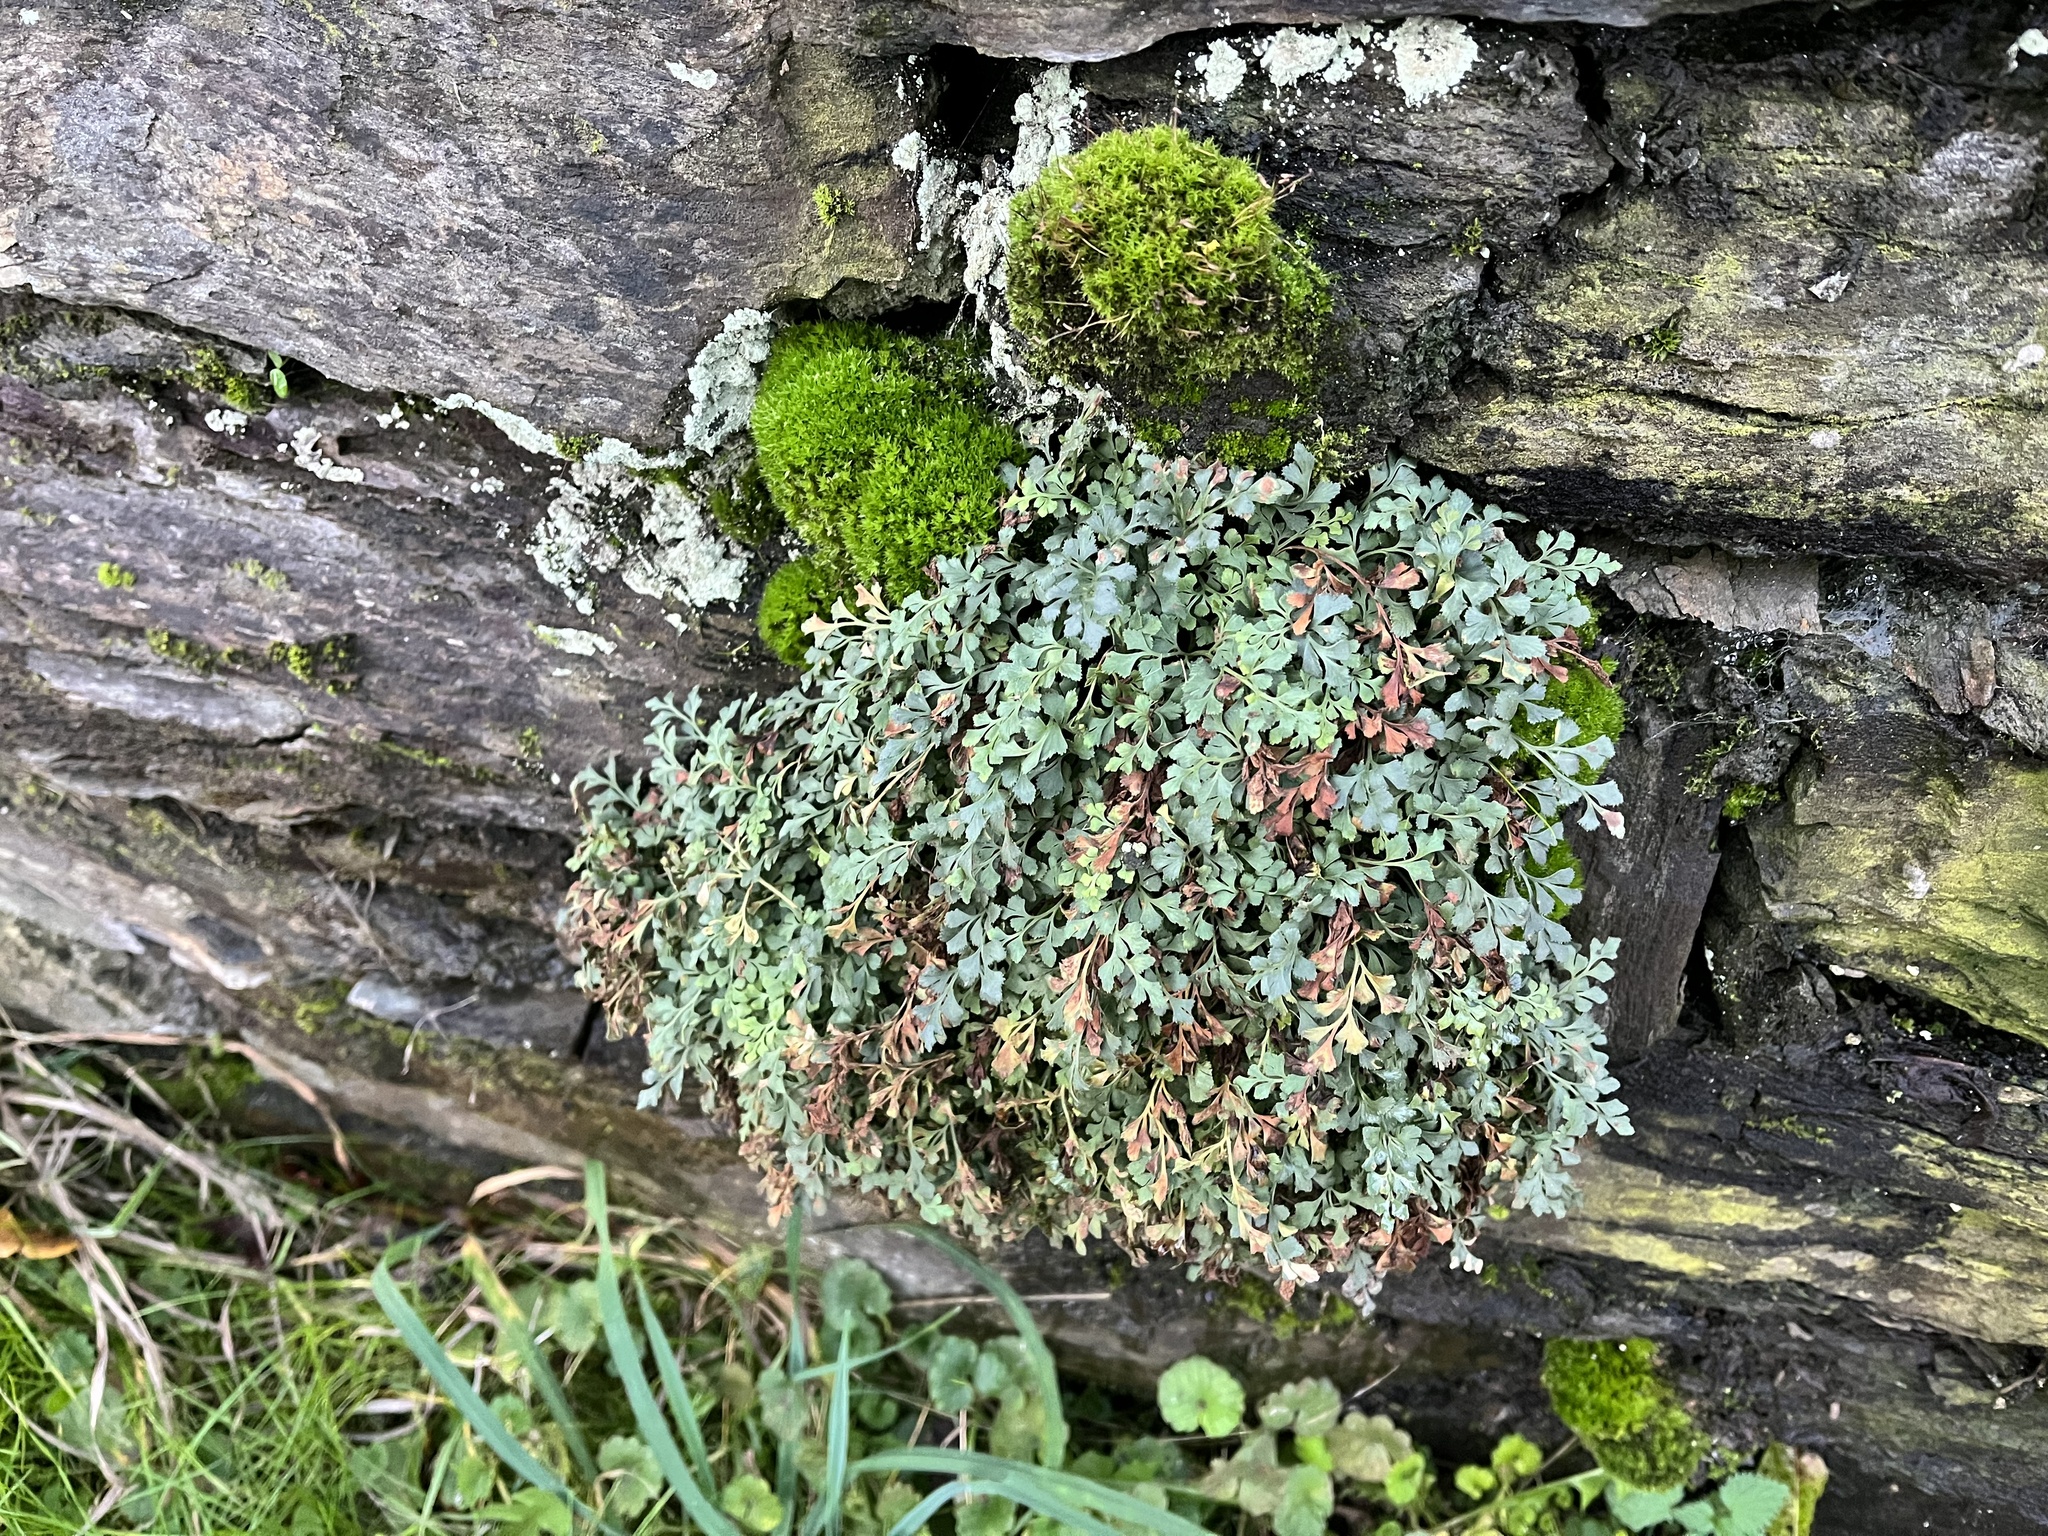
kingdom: Plantae
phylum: Tracheophyta
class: Polypodiopsida
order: Polypodiales
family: Aspleniaceae
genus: Asplenium
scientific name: Asplenium ruta-muraria
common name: Wall-rue
